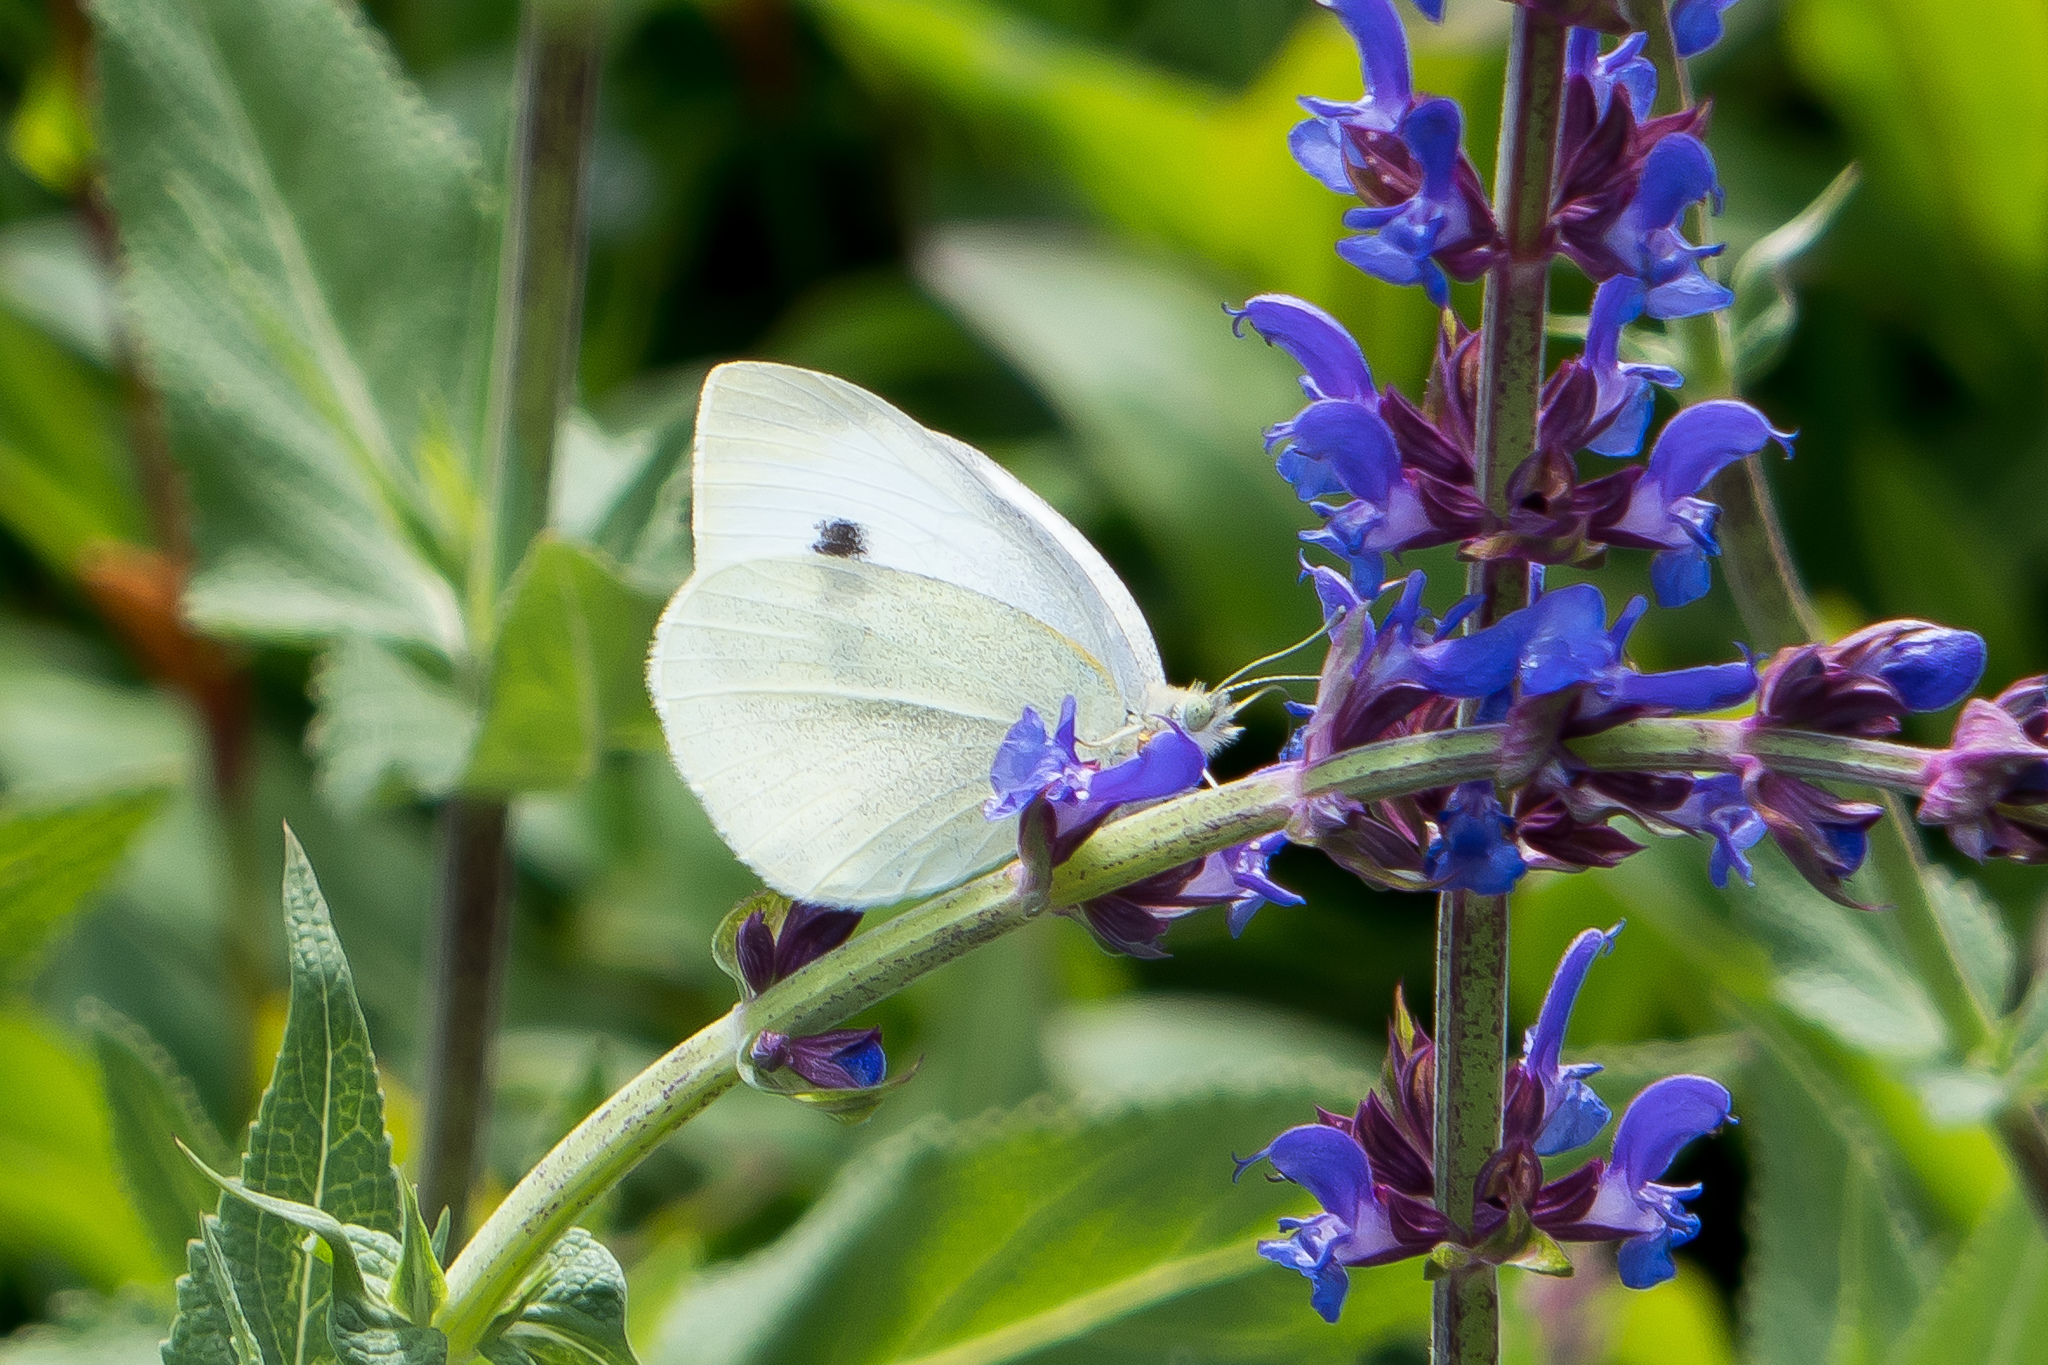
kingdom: Animalia
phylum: Arthropoda
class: Insecta
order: Lepidoptera
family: Pieridae
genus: Pieris
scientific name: Pieris rapae
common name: Small white
